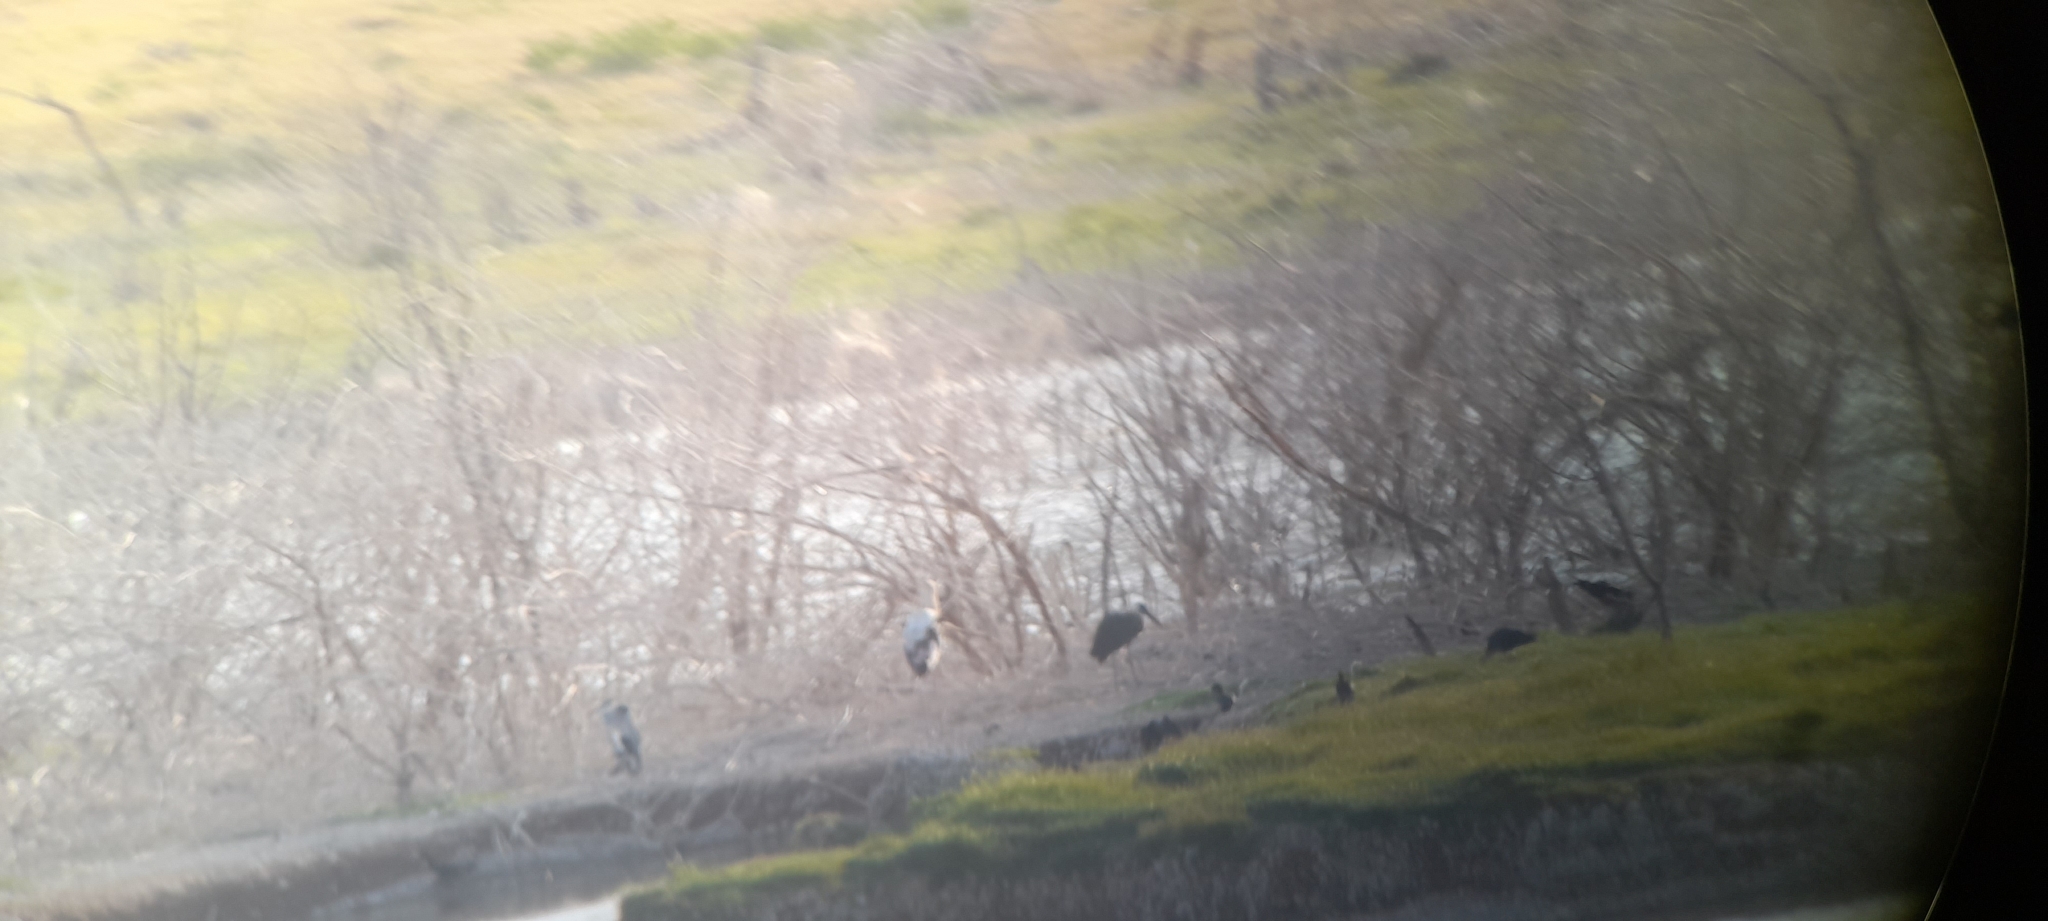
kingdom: Animalia
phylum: Chordata
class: Aves
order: Ciconiiformes
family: Ciconiidae
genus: Ciconia
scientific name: Ciconia episcopus
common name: Woolly-necked stork
